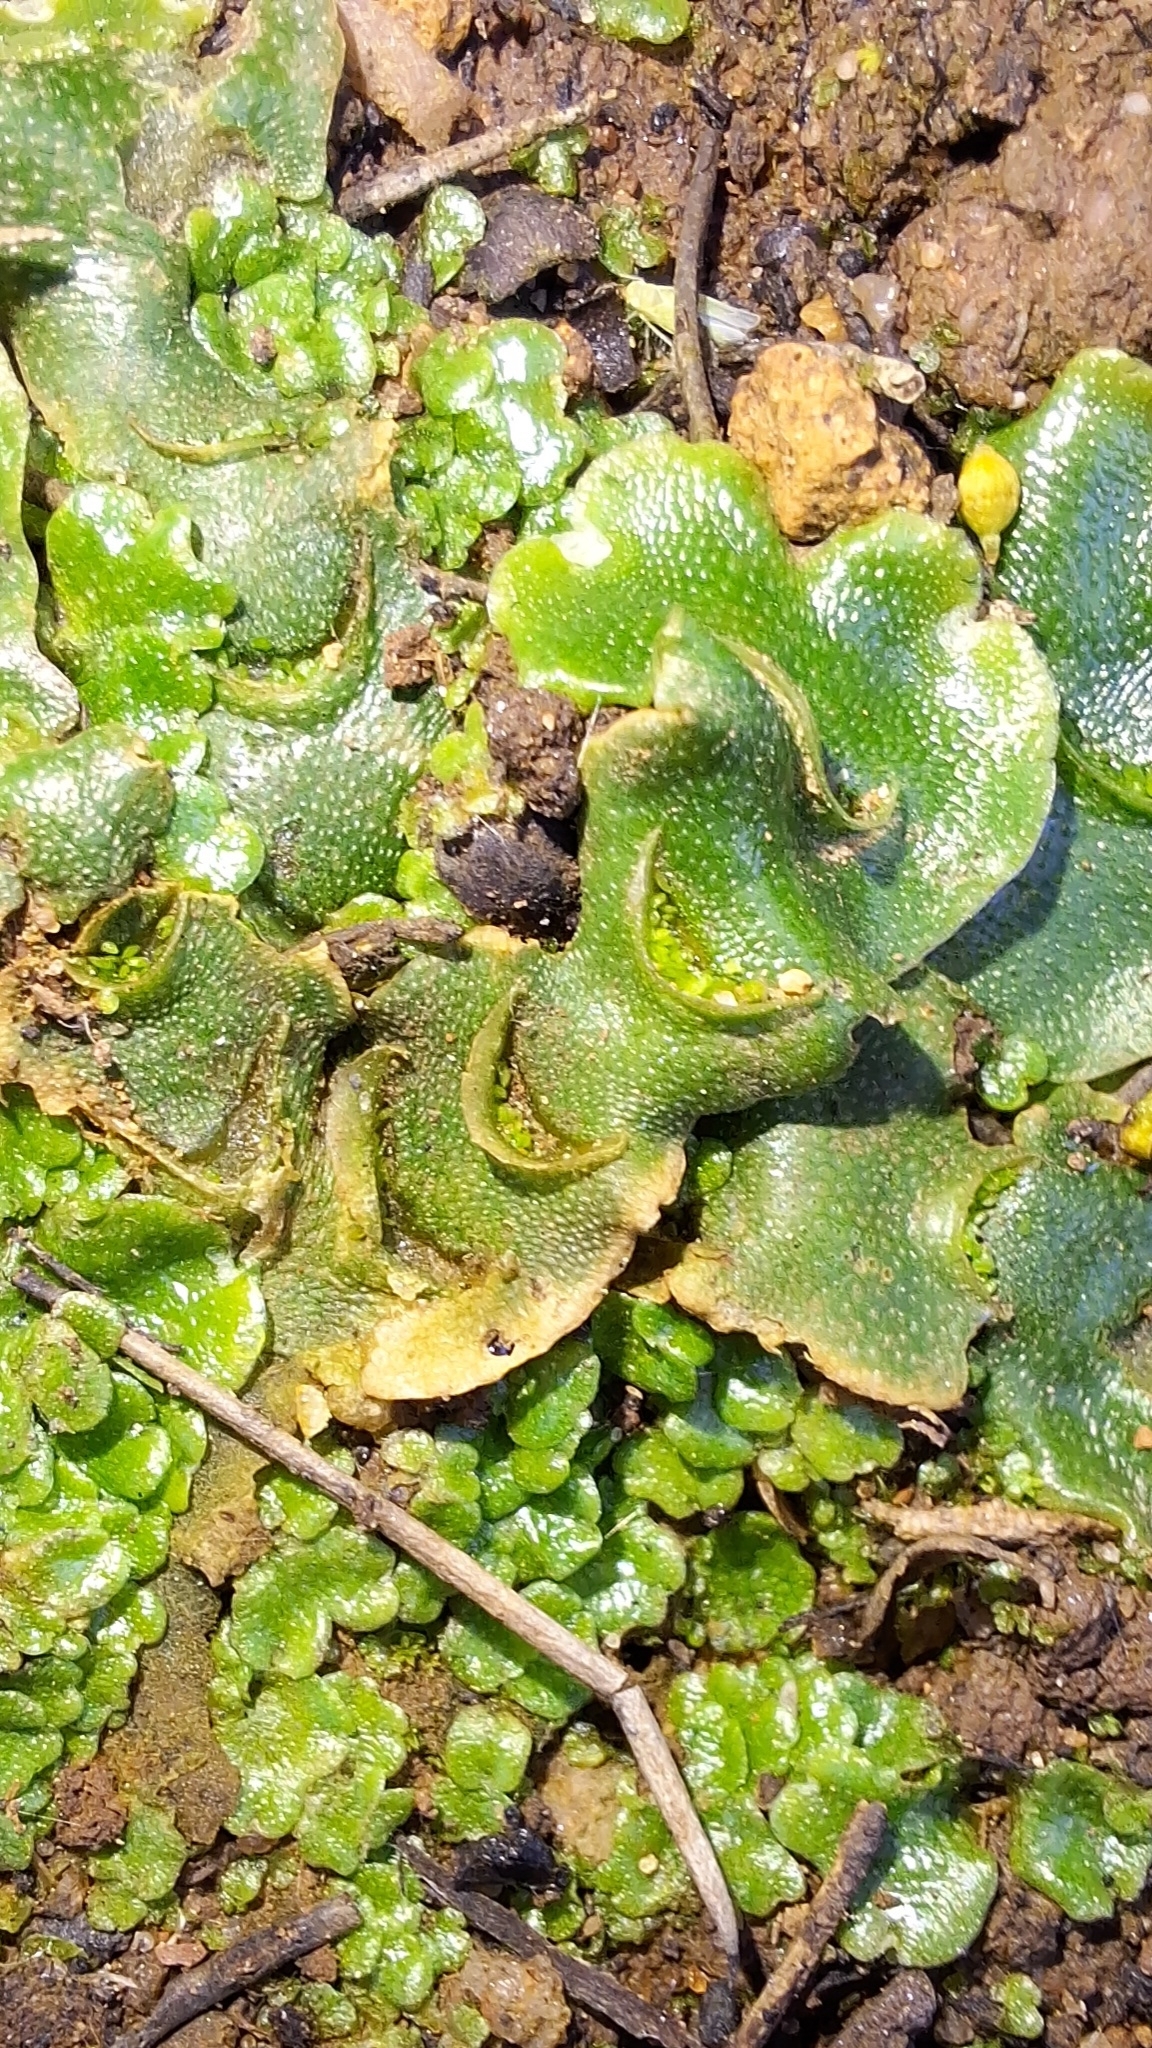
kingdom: Plantae
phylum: Marchantiophyta
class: Marchantiopsida
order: Lunulariales
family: Lunulariaceae
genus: Lunularia
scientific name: Lunularia cruciata
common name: Crescent-cup liverwort
